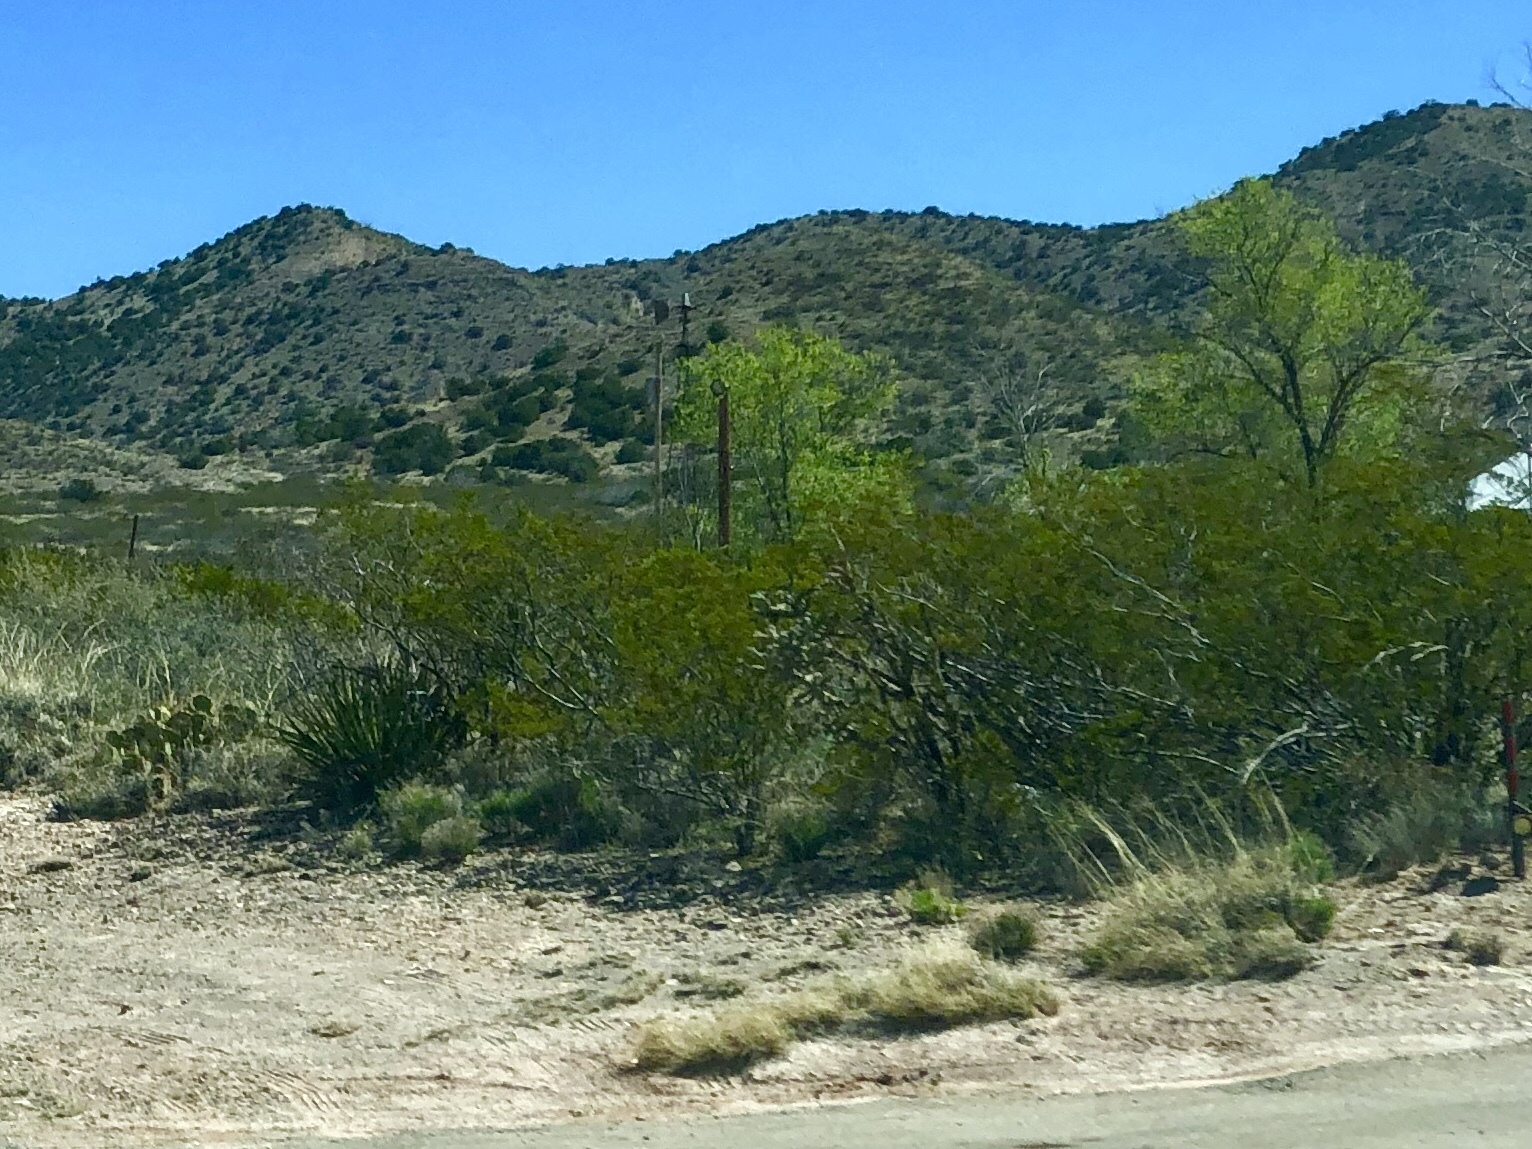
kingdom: Plantae
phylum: Tracheophyta
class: Magnoliopsida
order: Zygophyllales
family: Zygophyllaceae
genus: Larrea
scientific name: Larrea tridentata
